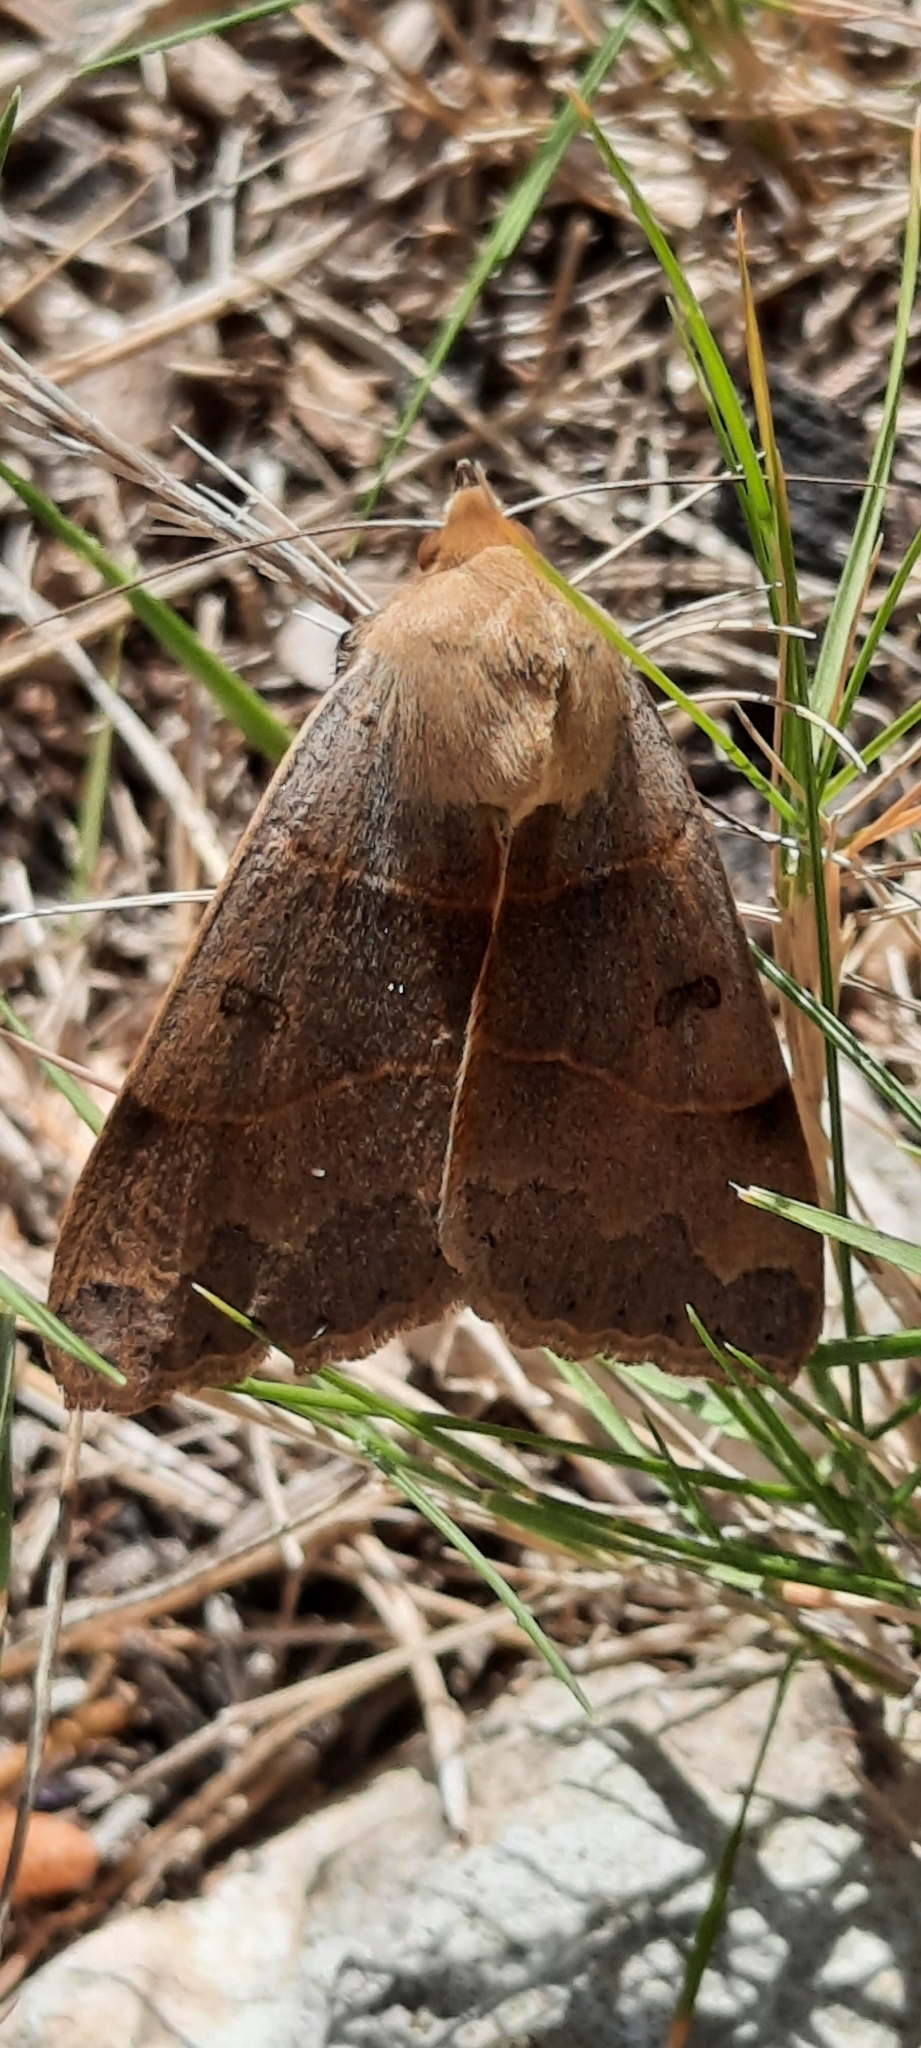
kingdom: Animalia
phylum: Arthropoda
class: Insecta
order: Lepidoptera
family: Erebidae
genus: Minucia
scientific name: Minucia lunaris
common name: Lunar double-stripe
